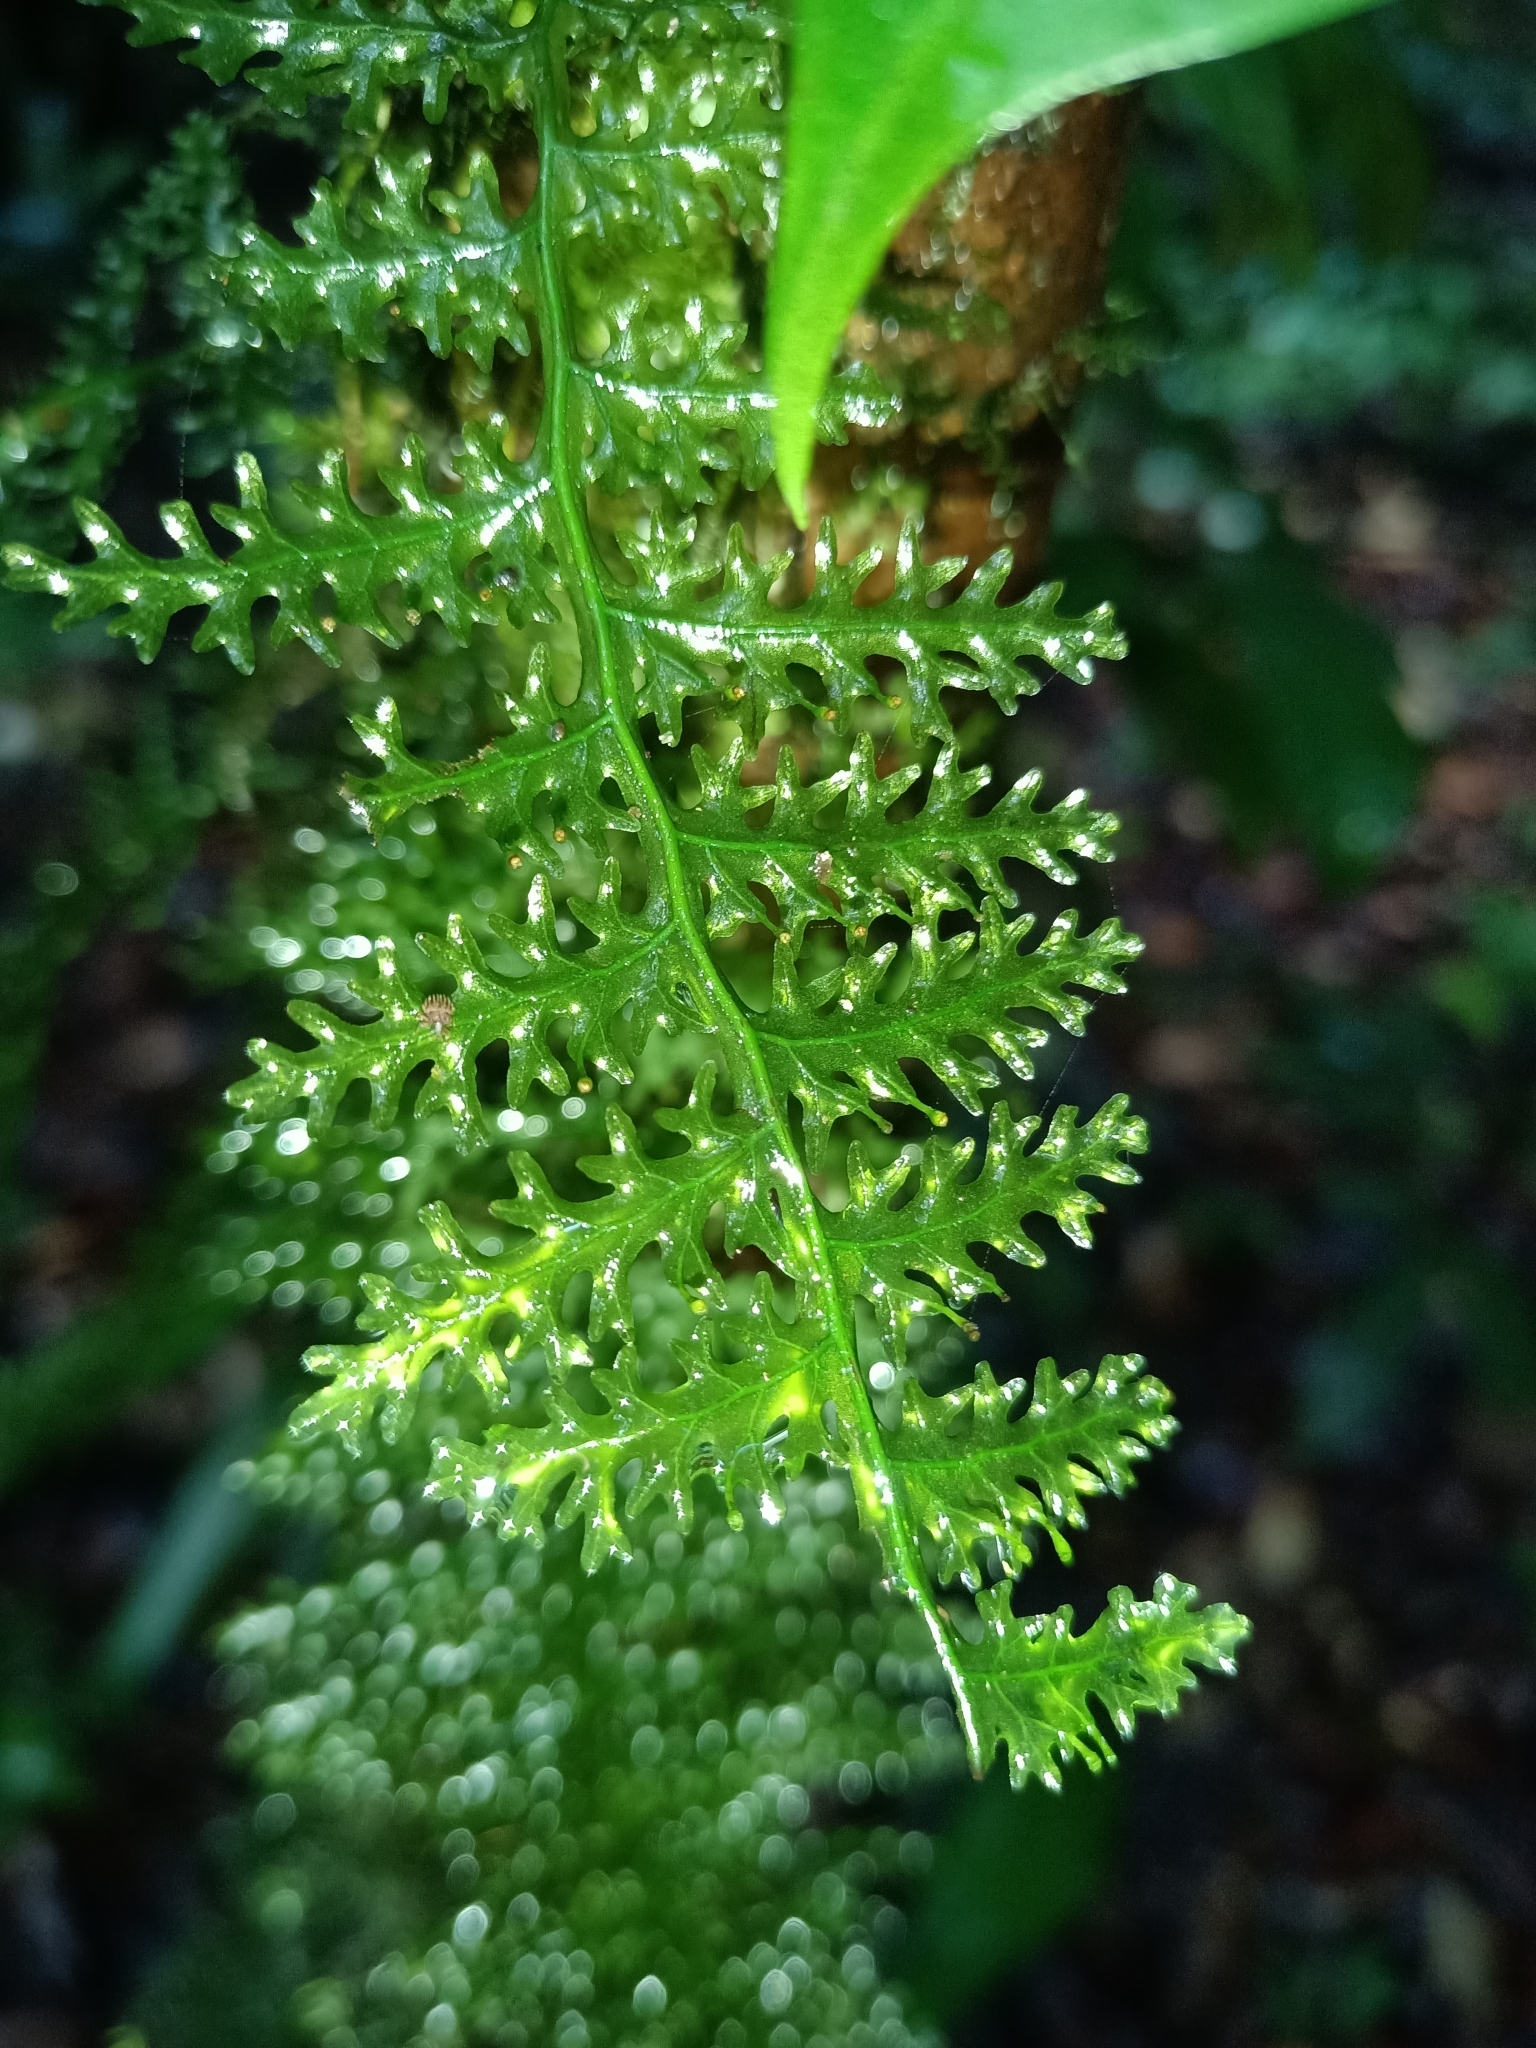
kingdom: Plantae
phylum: Tracheophyta
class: Polypodiopsida
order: Hymenophyllales
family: Hymenophyllaceae
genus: Trichomanes
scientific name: Trichomanes pedicellatum
